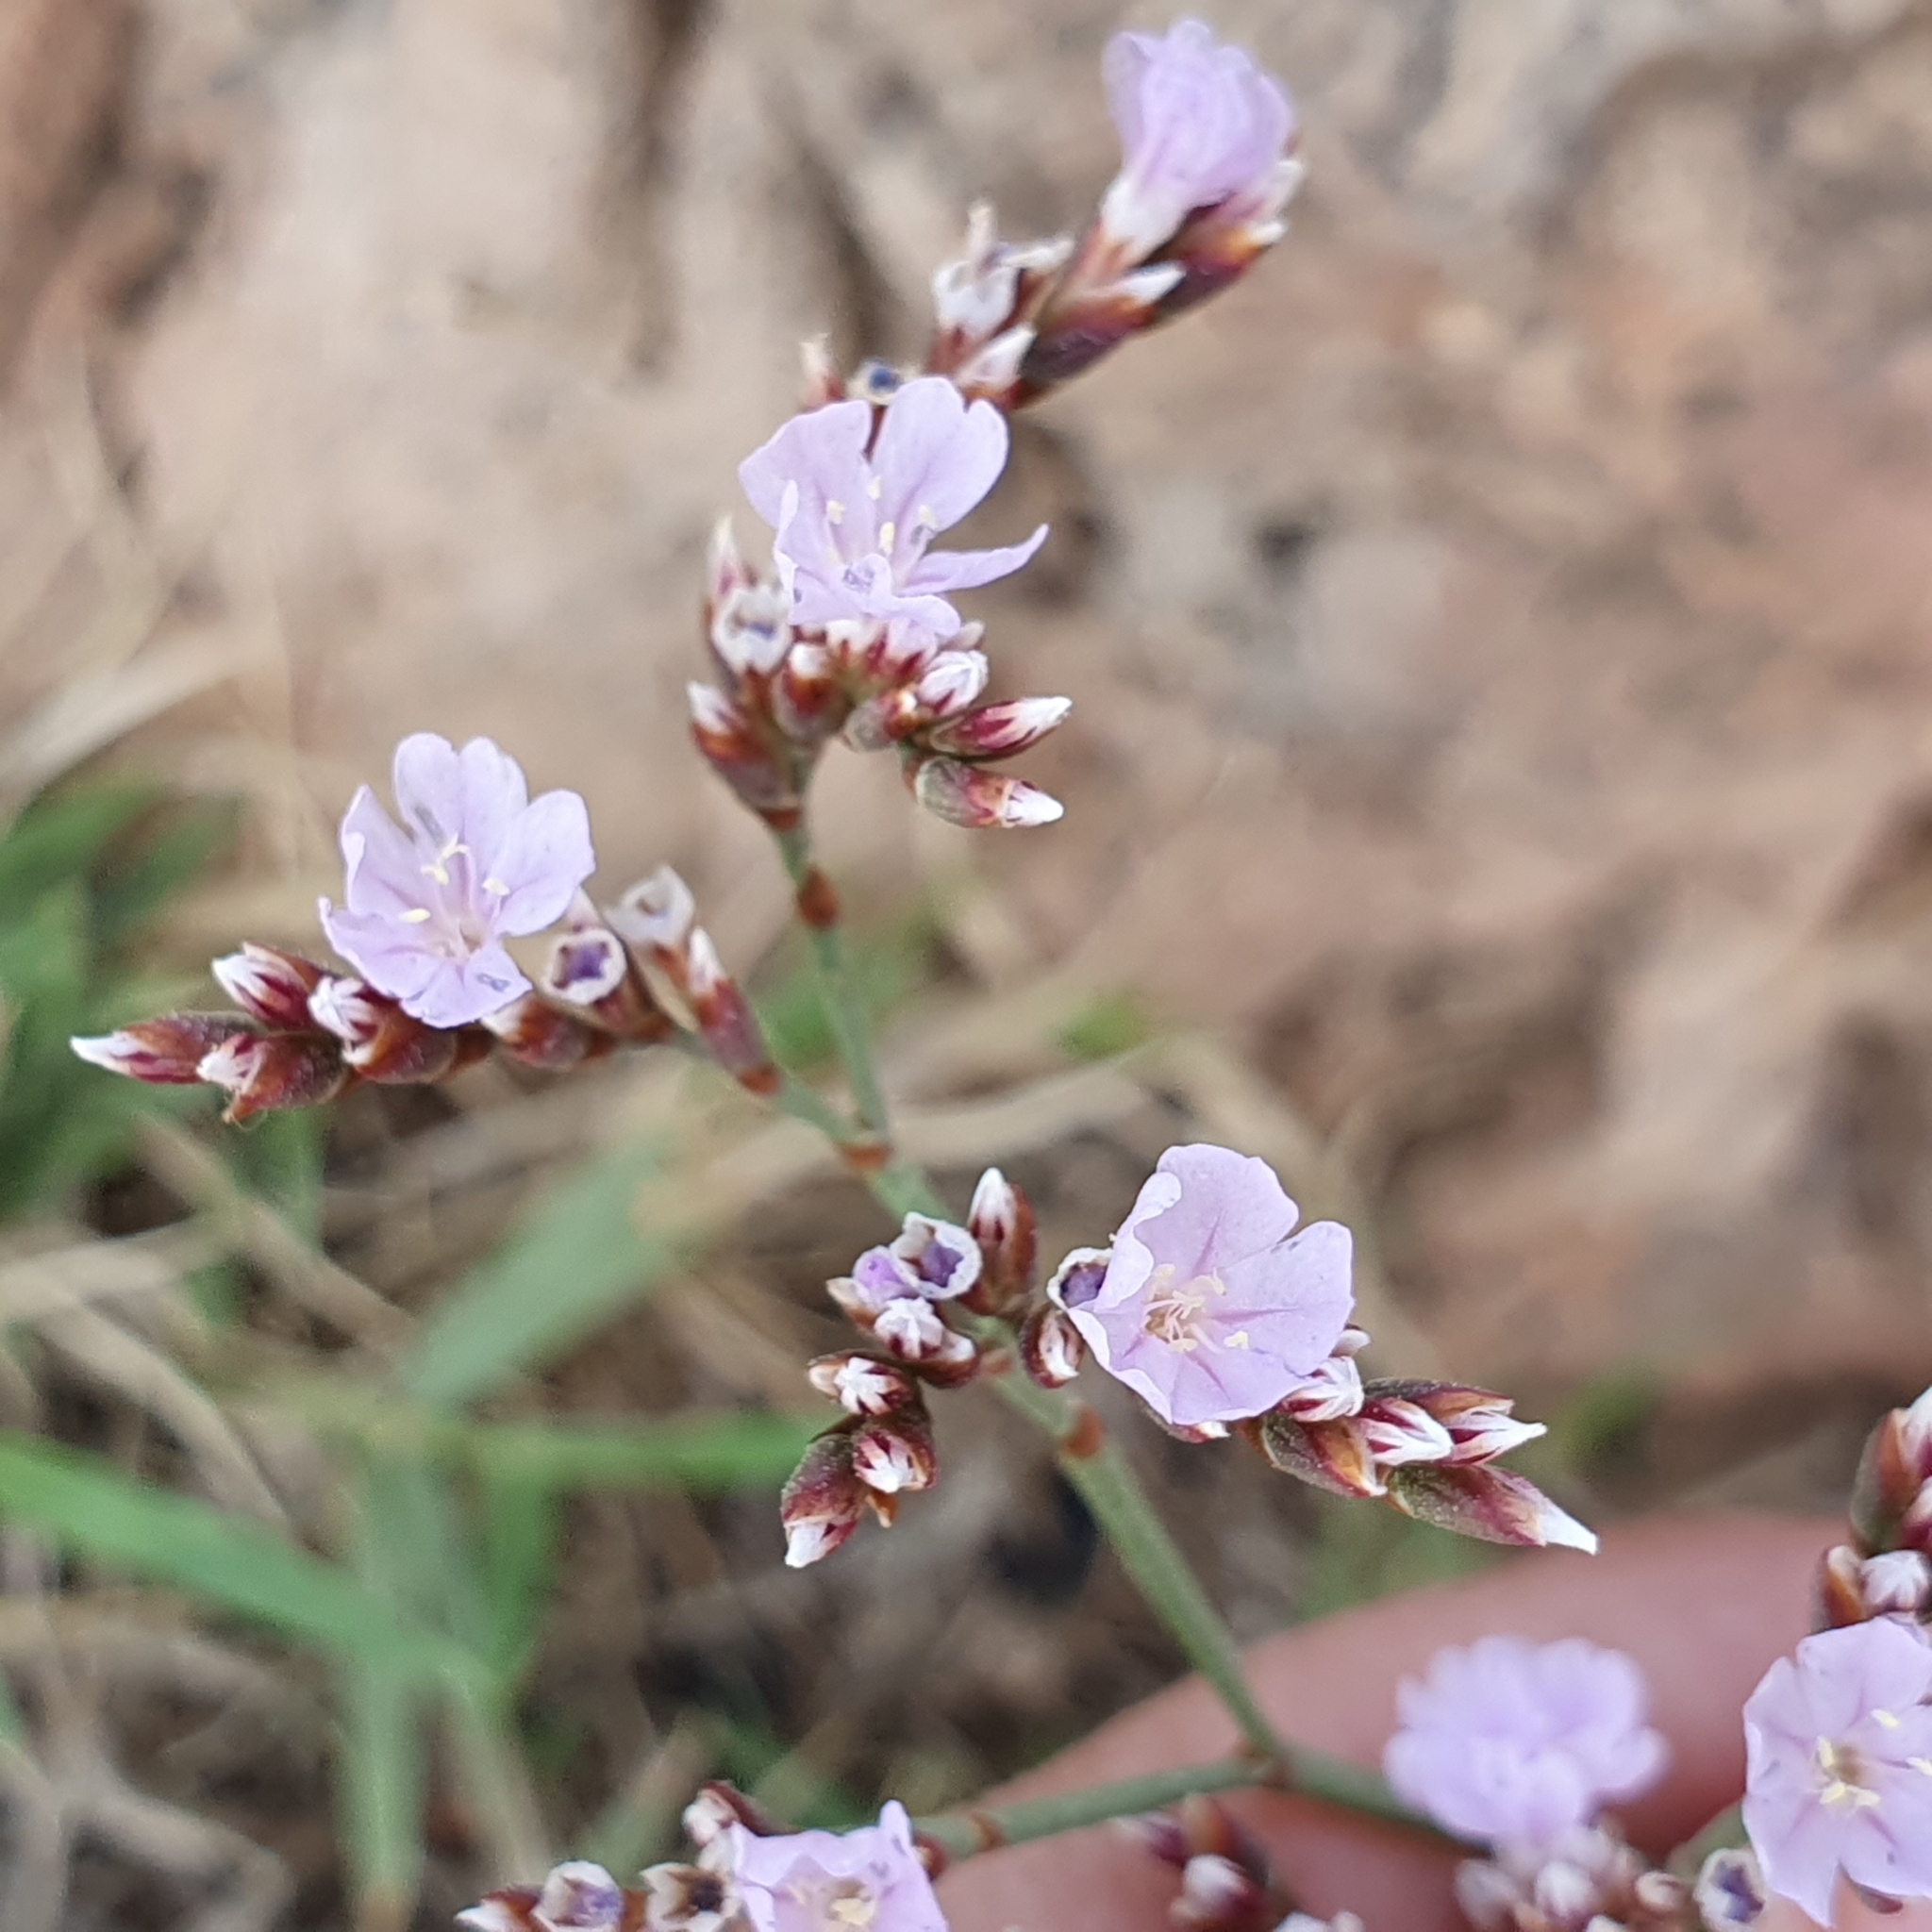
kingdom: Plantae
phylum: Tracheophyta
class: Magnoliopsida
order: Caryophyllales
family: Plumbaginaceae
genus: Limonium
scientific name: Limonium gougetianum
